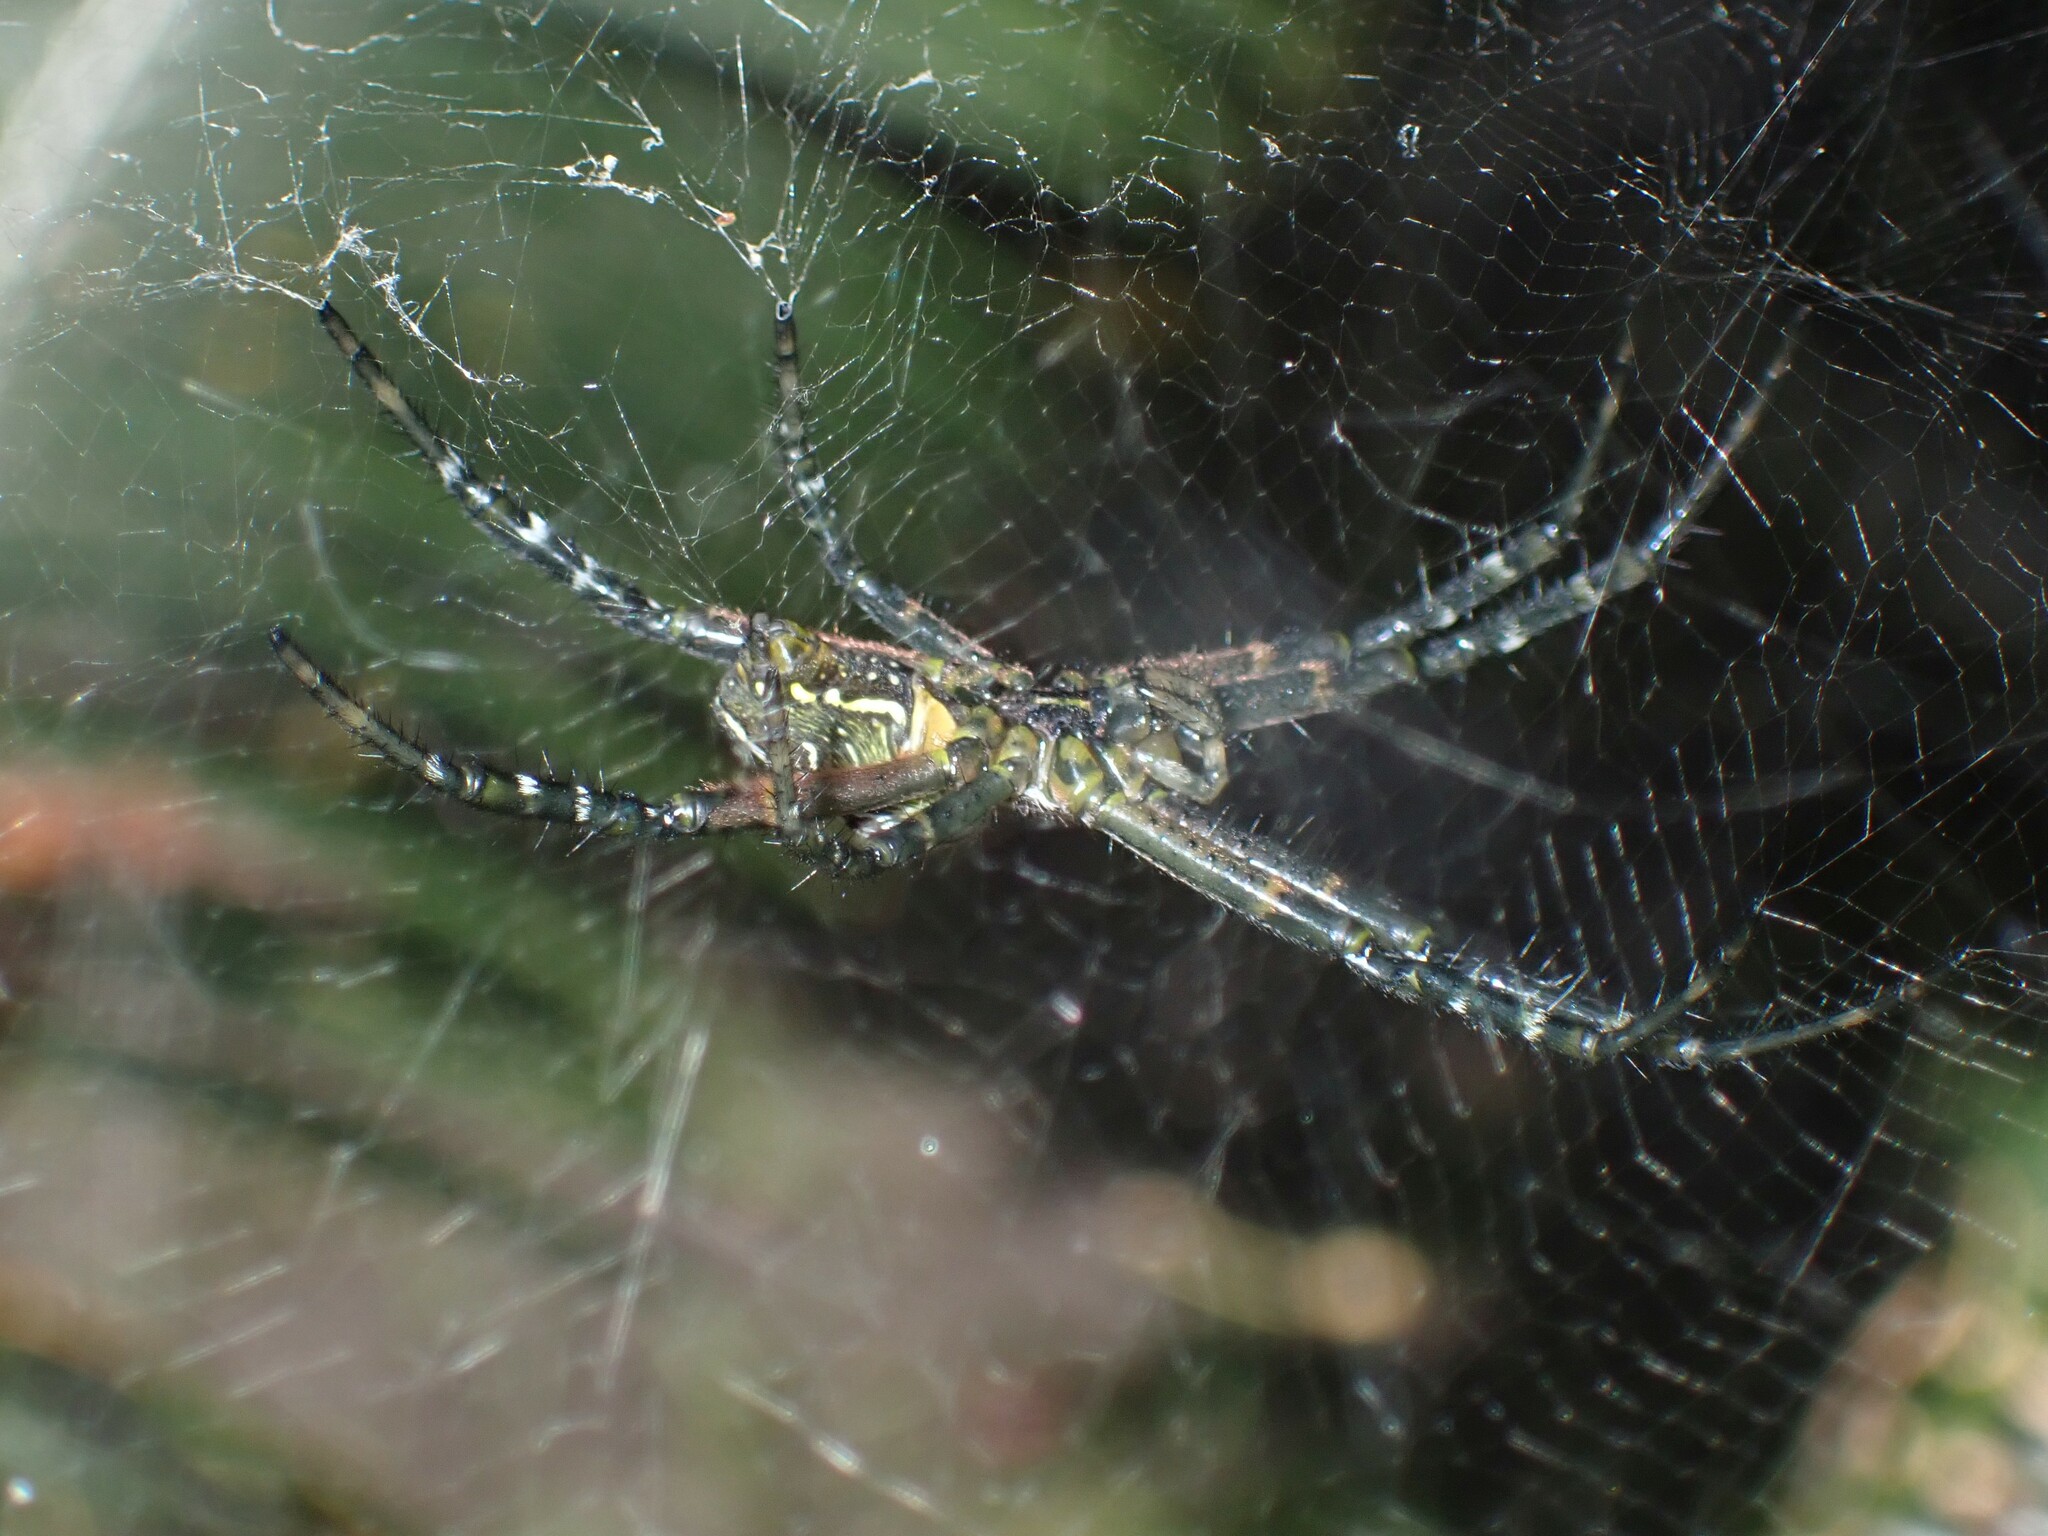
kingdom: Chromista
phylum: Ochrophyta
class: Dictyochophyceae
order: Pedinellales
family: Cyrtophoraceae
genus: Cyrtophora
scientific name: Cyrtophora moluccensis
